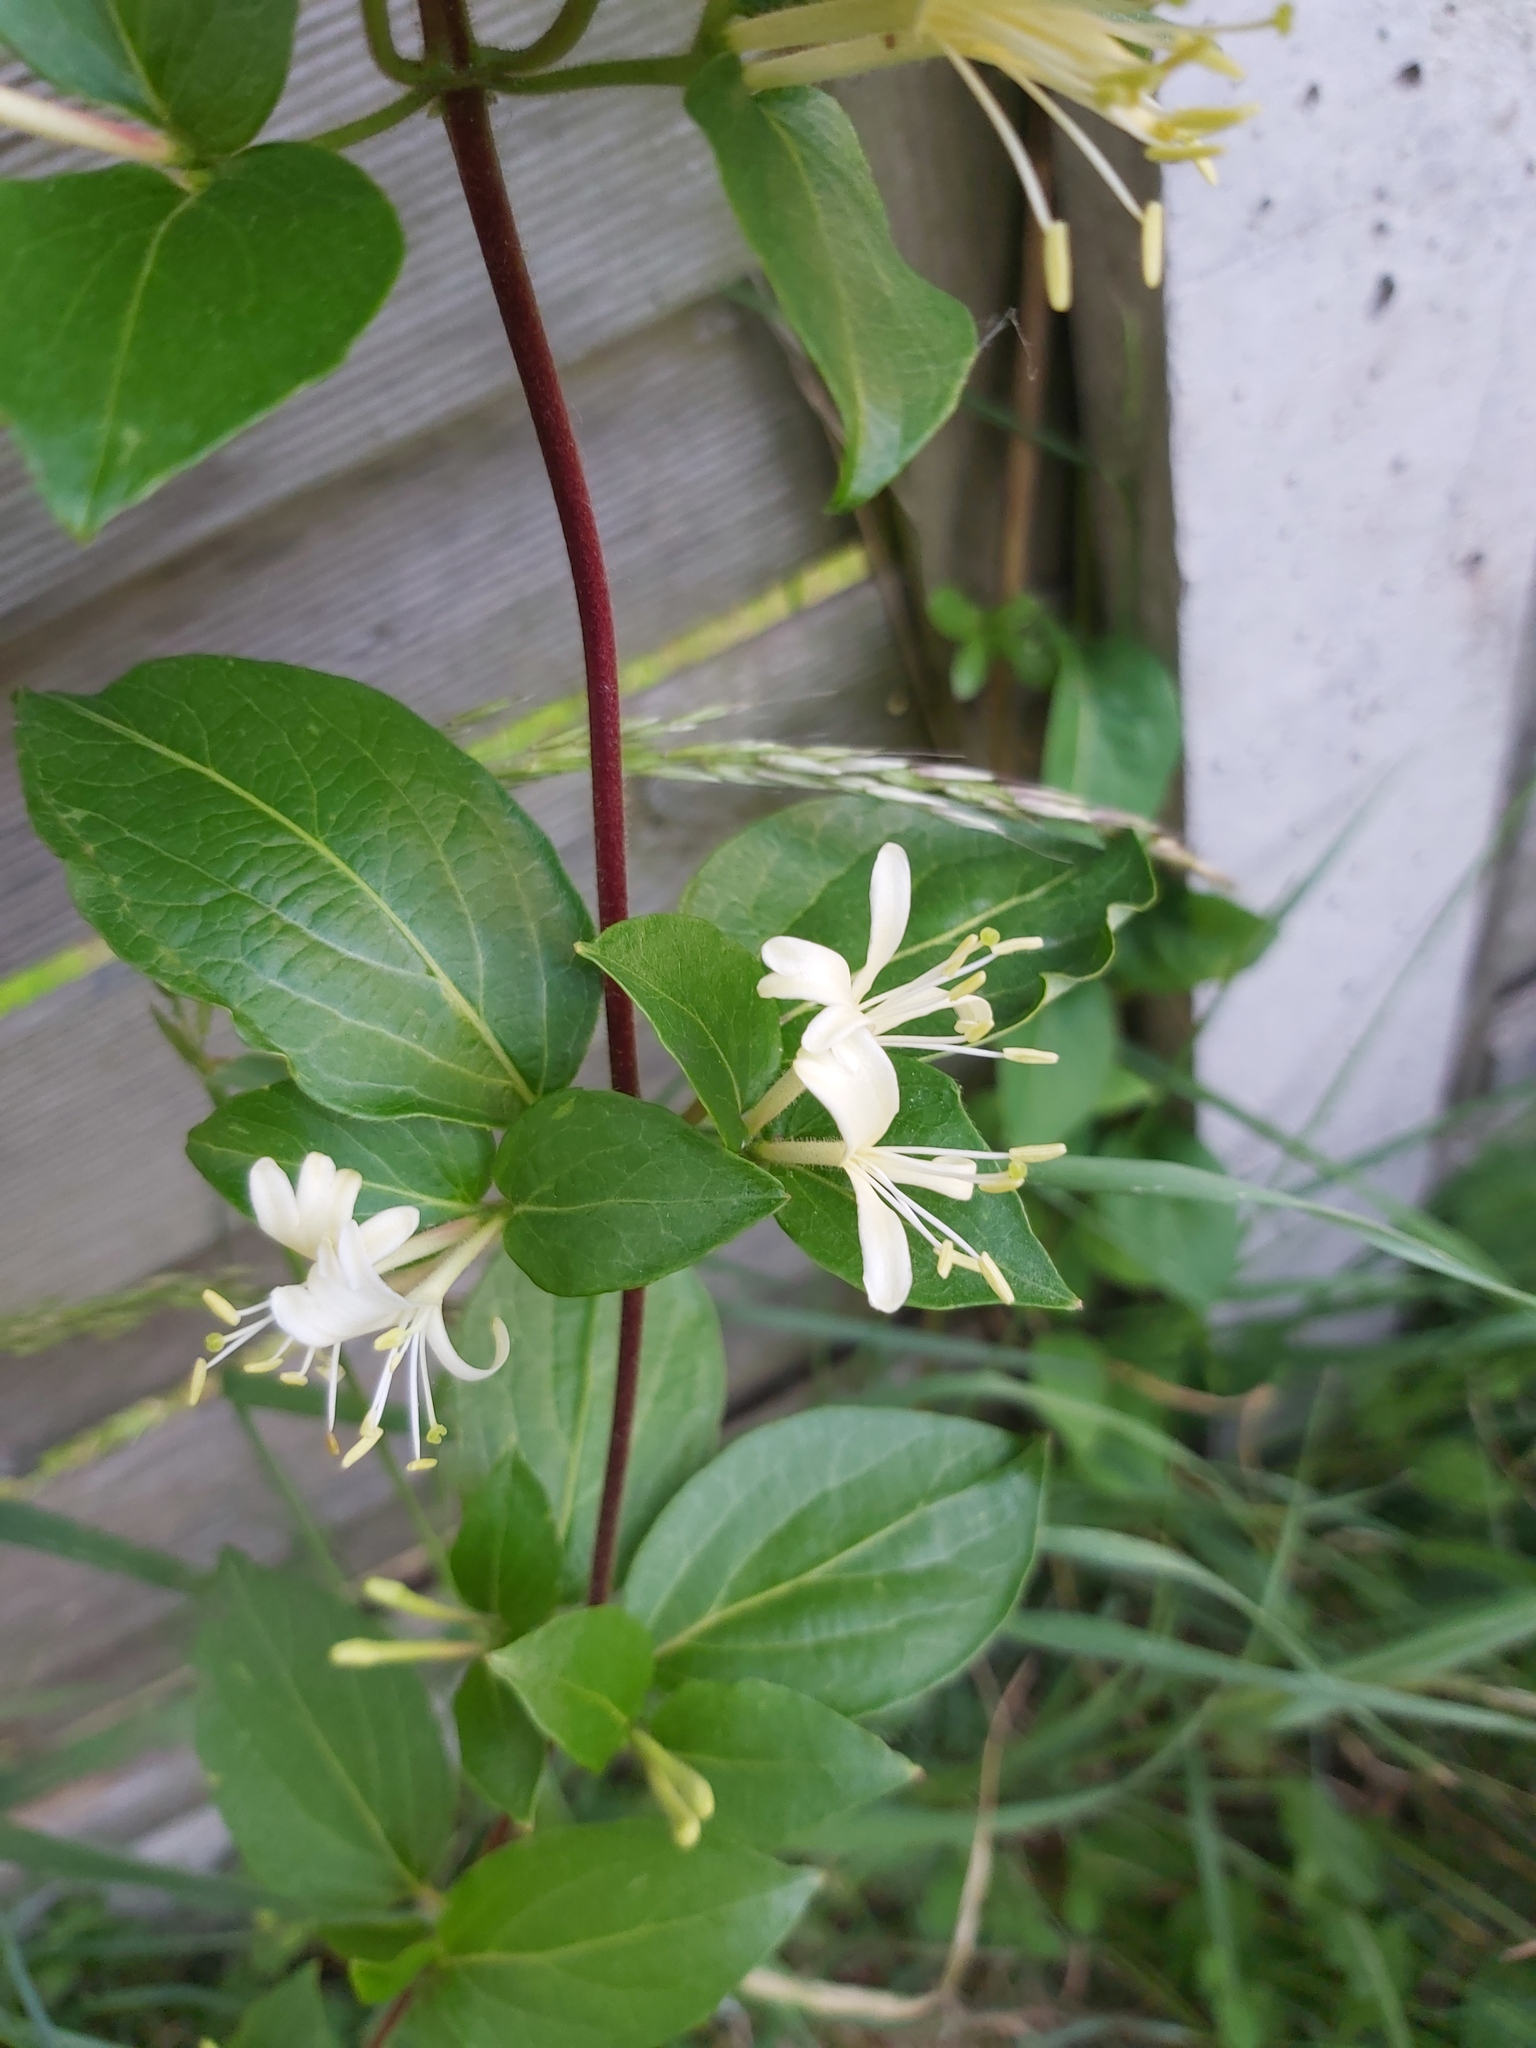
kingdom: Plantae
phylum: Tracheophyta
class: Magnoliopsida
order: Dipsacales
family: Caprifoliaceae
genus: Lonicera
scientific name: Lonicera japonica
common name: Japanese honeysuckle
